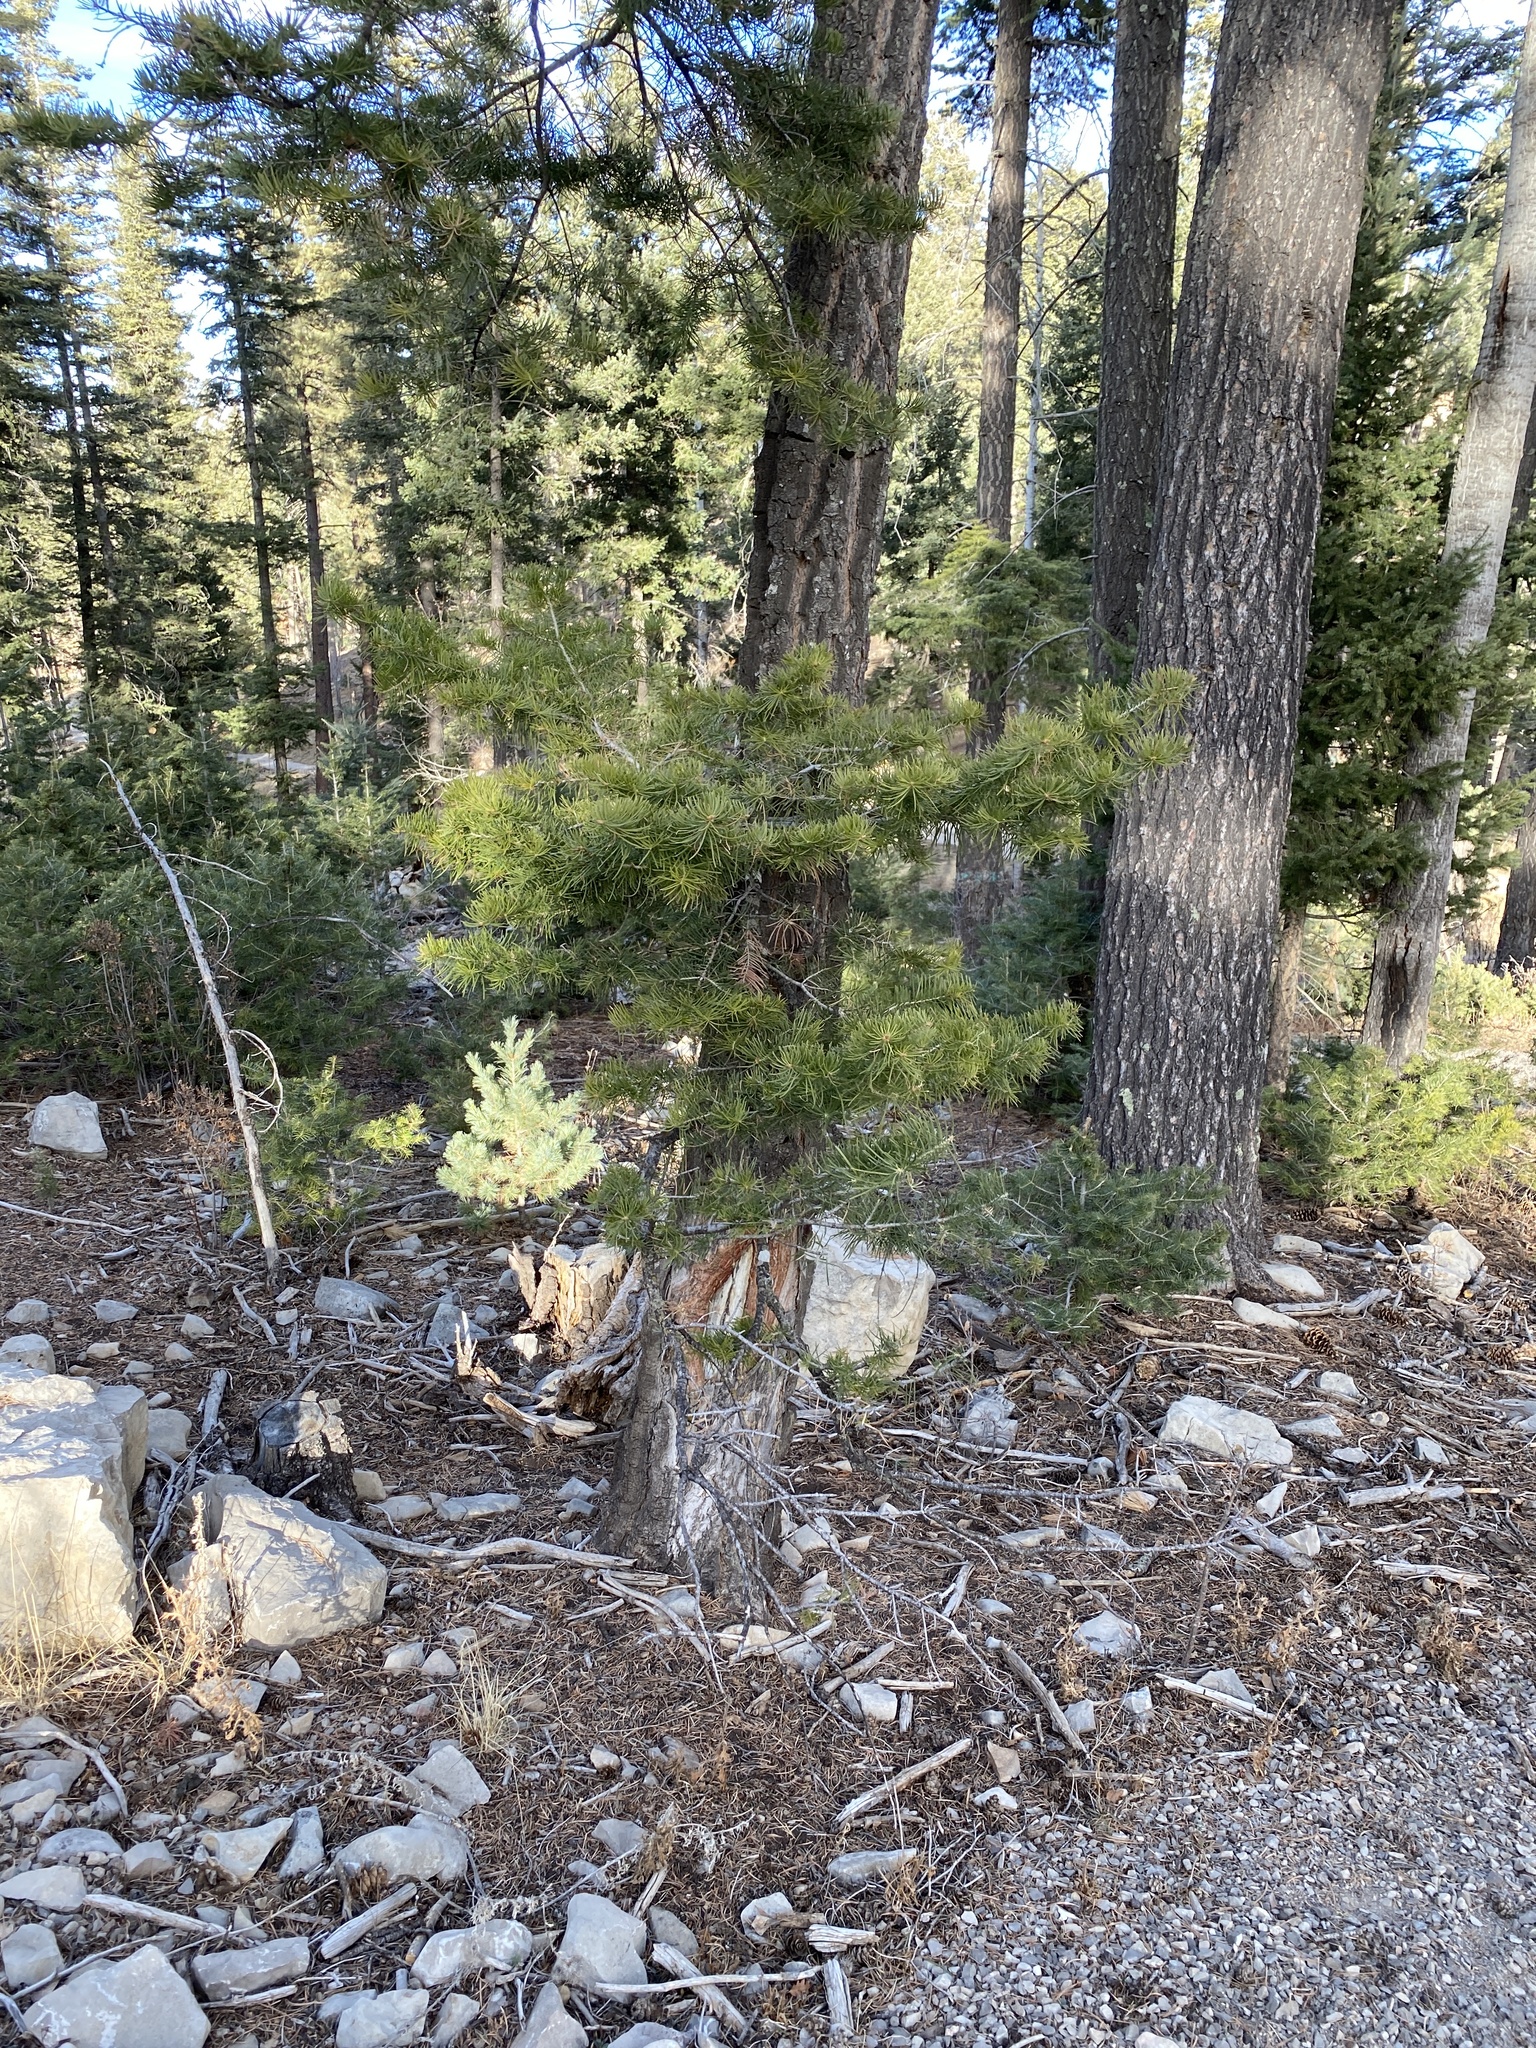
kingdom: Plantae
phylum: Tracheophyta
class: Pinopsida
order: Pinales
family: Pinaceae
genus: Abies
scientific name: Abies concolor
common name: Colorado fir
